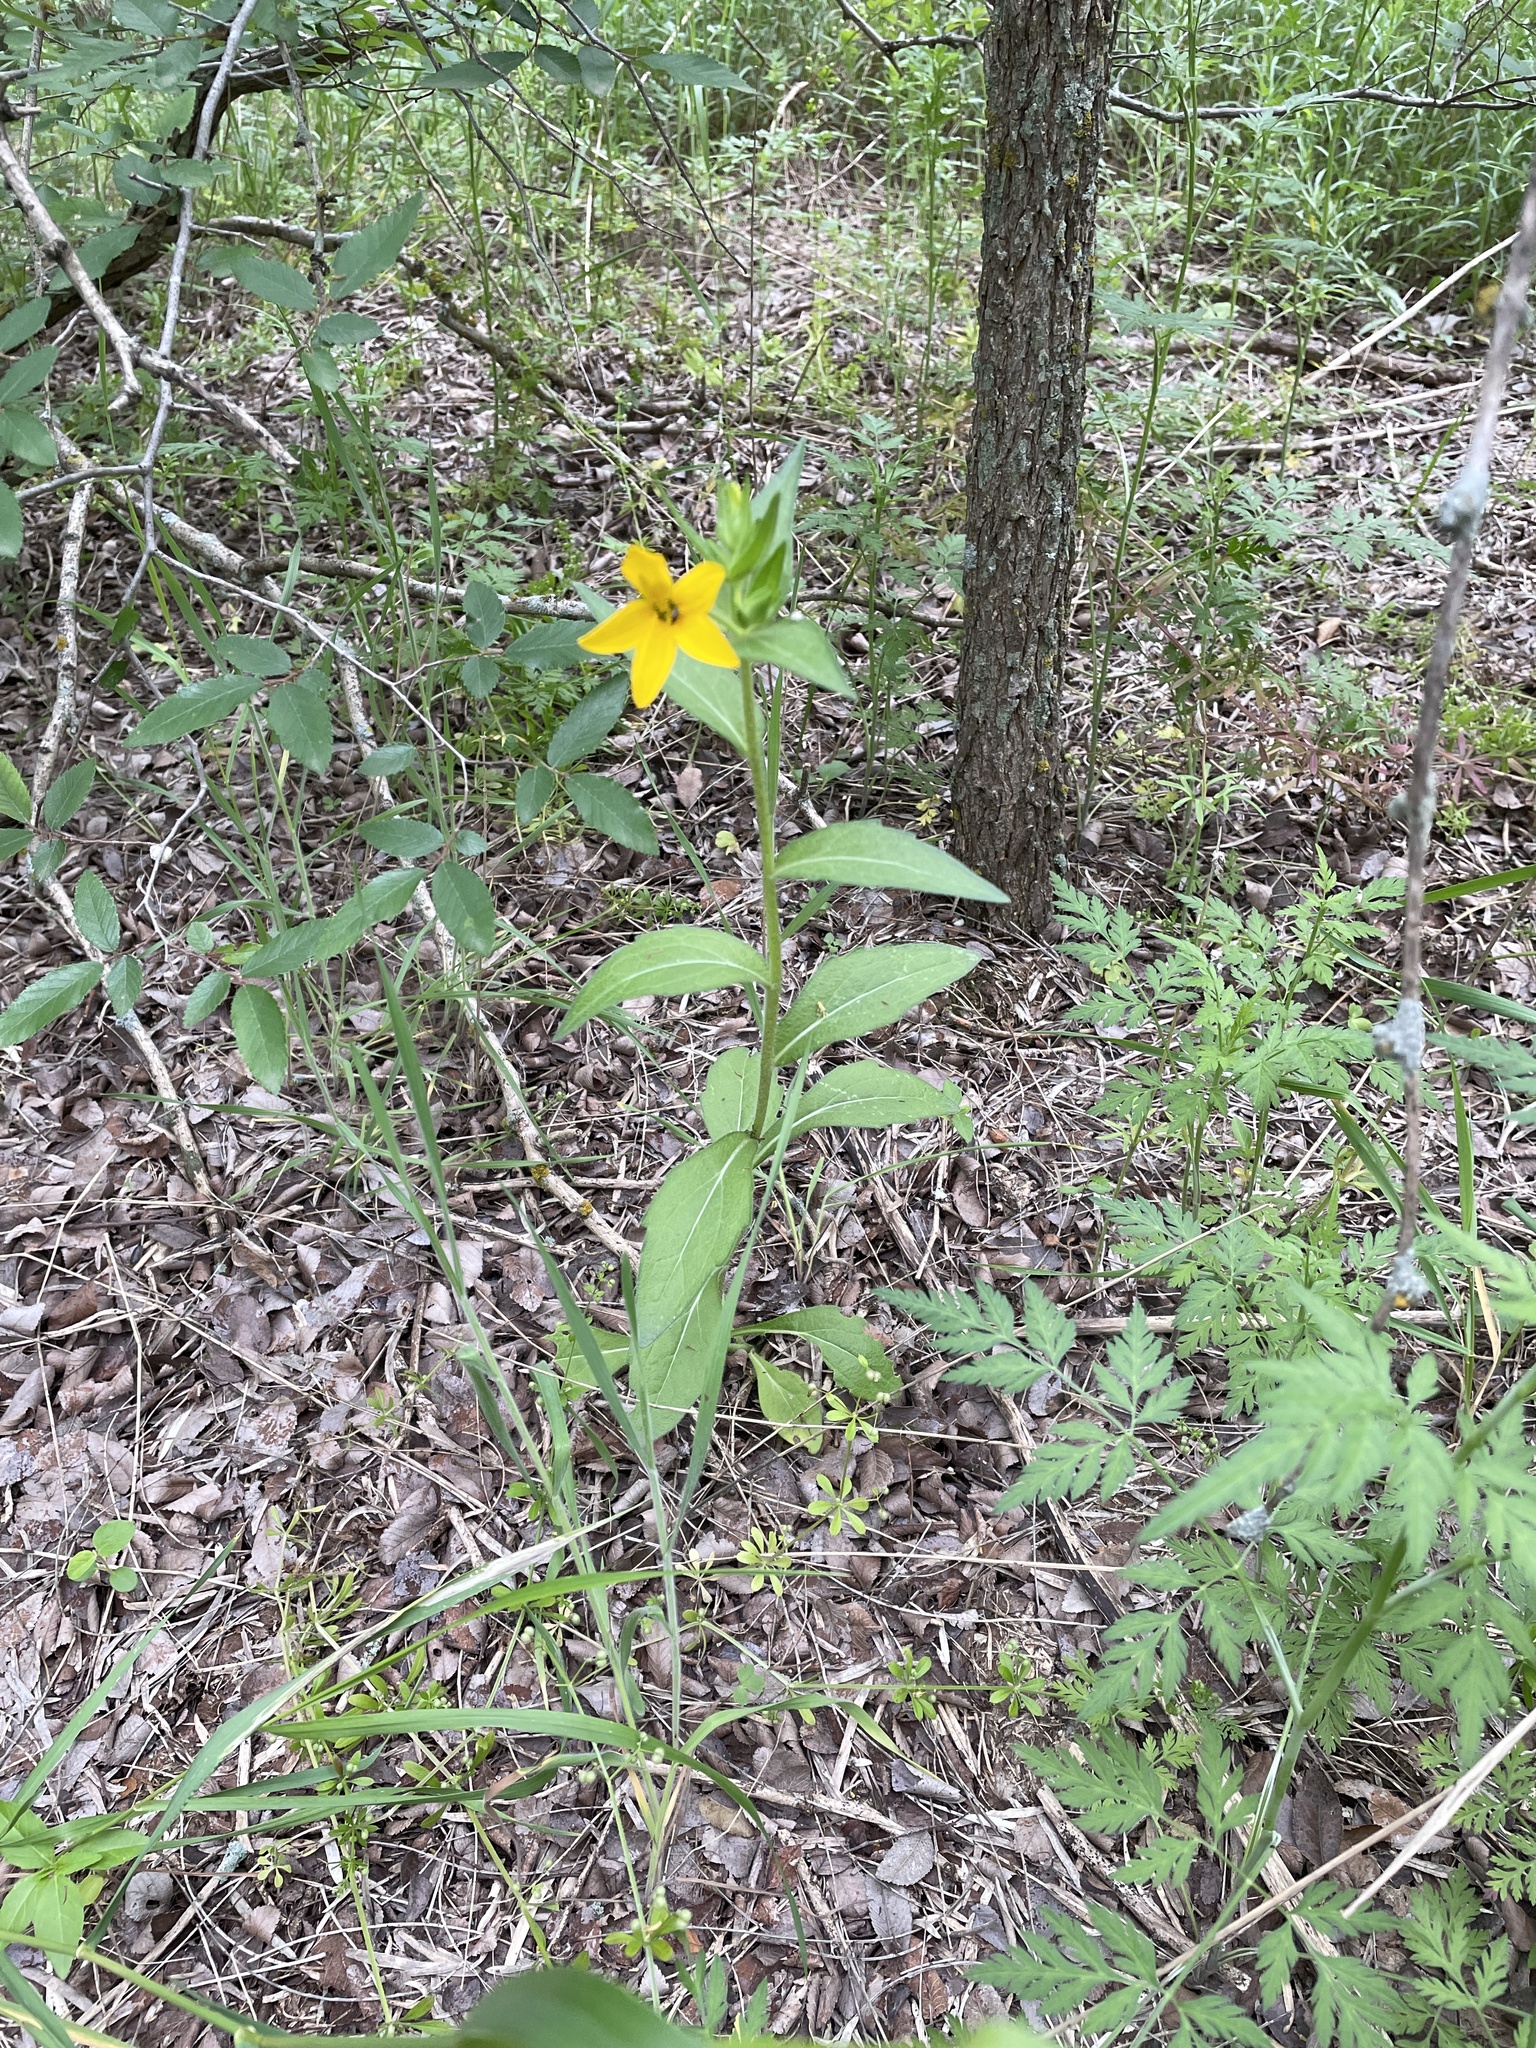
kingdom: Plantae
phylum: Tracheophyta
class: Magnoliopsida
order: Asterales
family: Asteraceae
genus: Lindheimera
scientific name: Lindheimera texana
